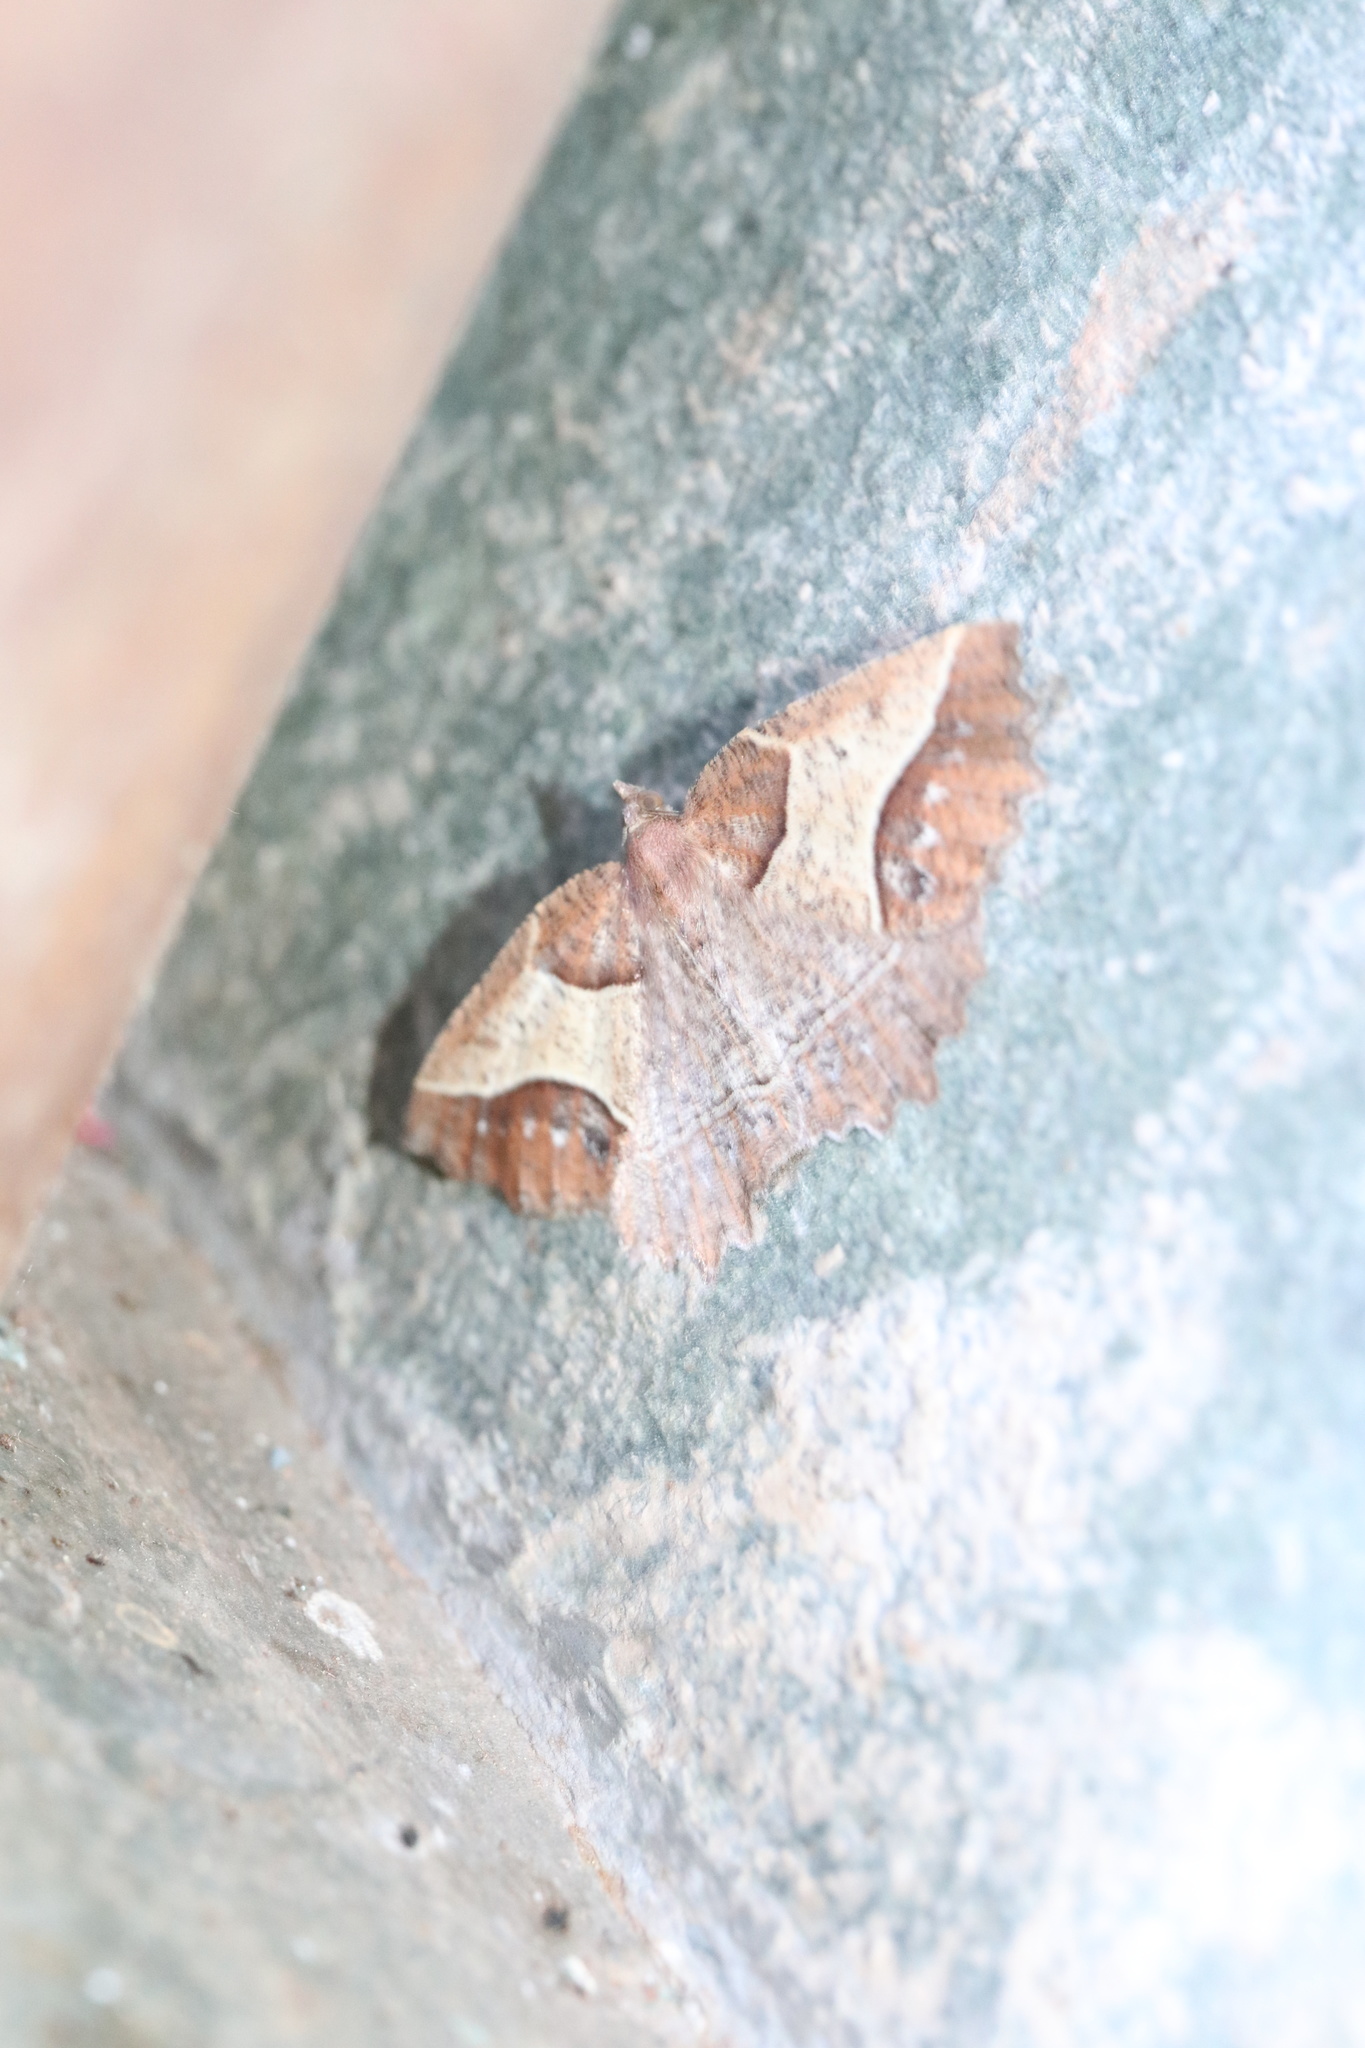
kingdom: Animalia
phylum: Arthropoda
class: Insecta
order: Lepidoptera
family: Geometridae
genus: Odontothera
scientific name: Odontothera Proteopharmacis valdiviata
